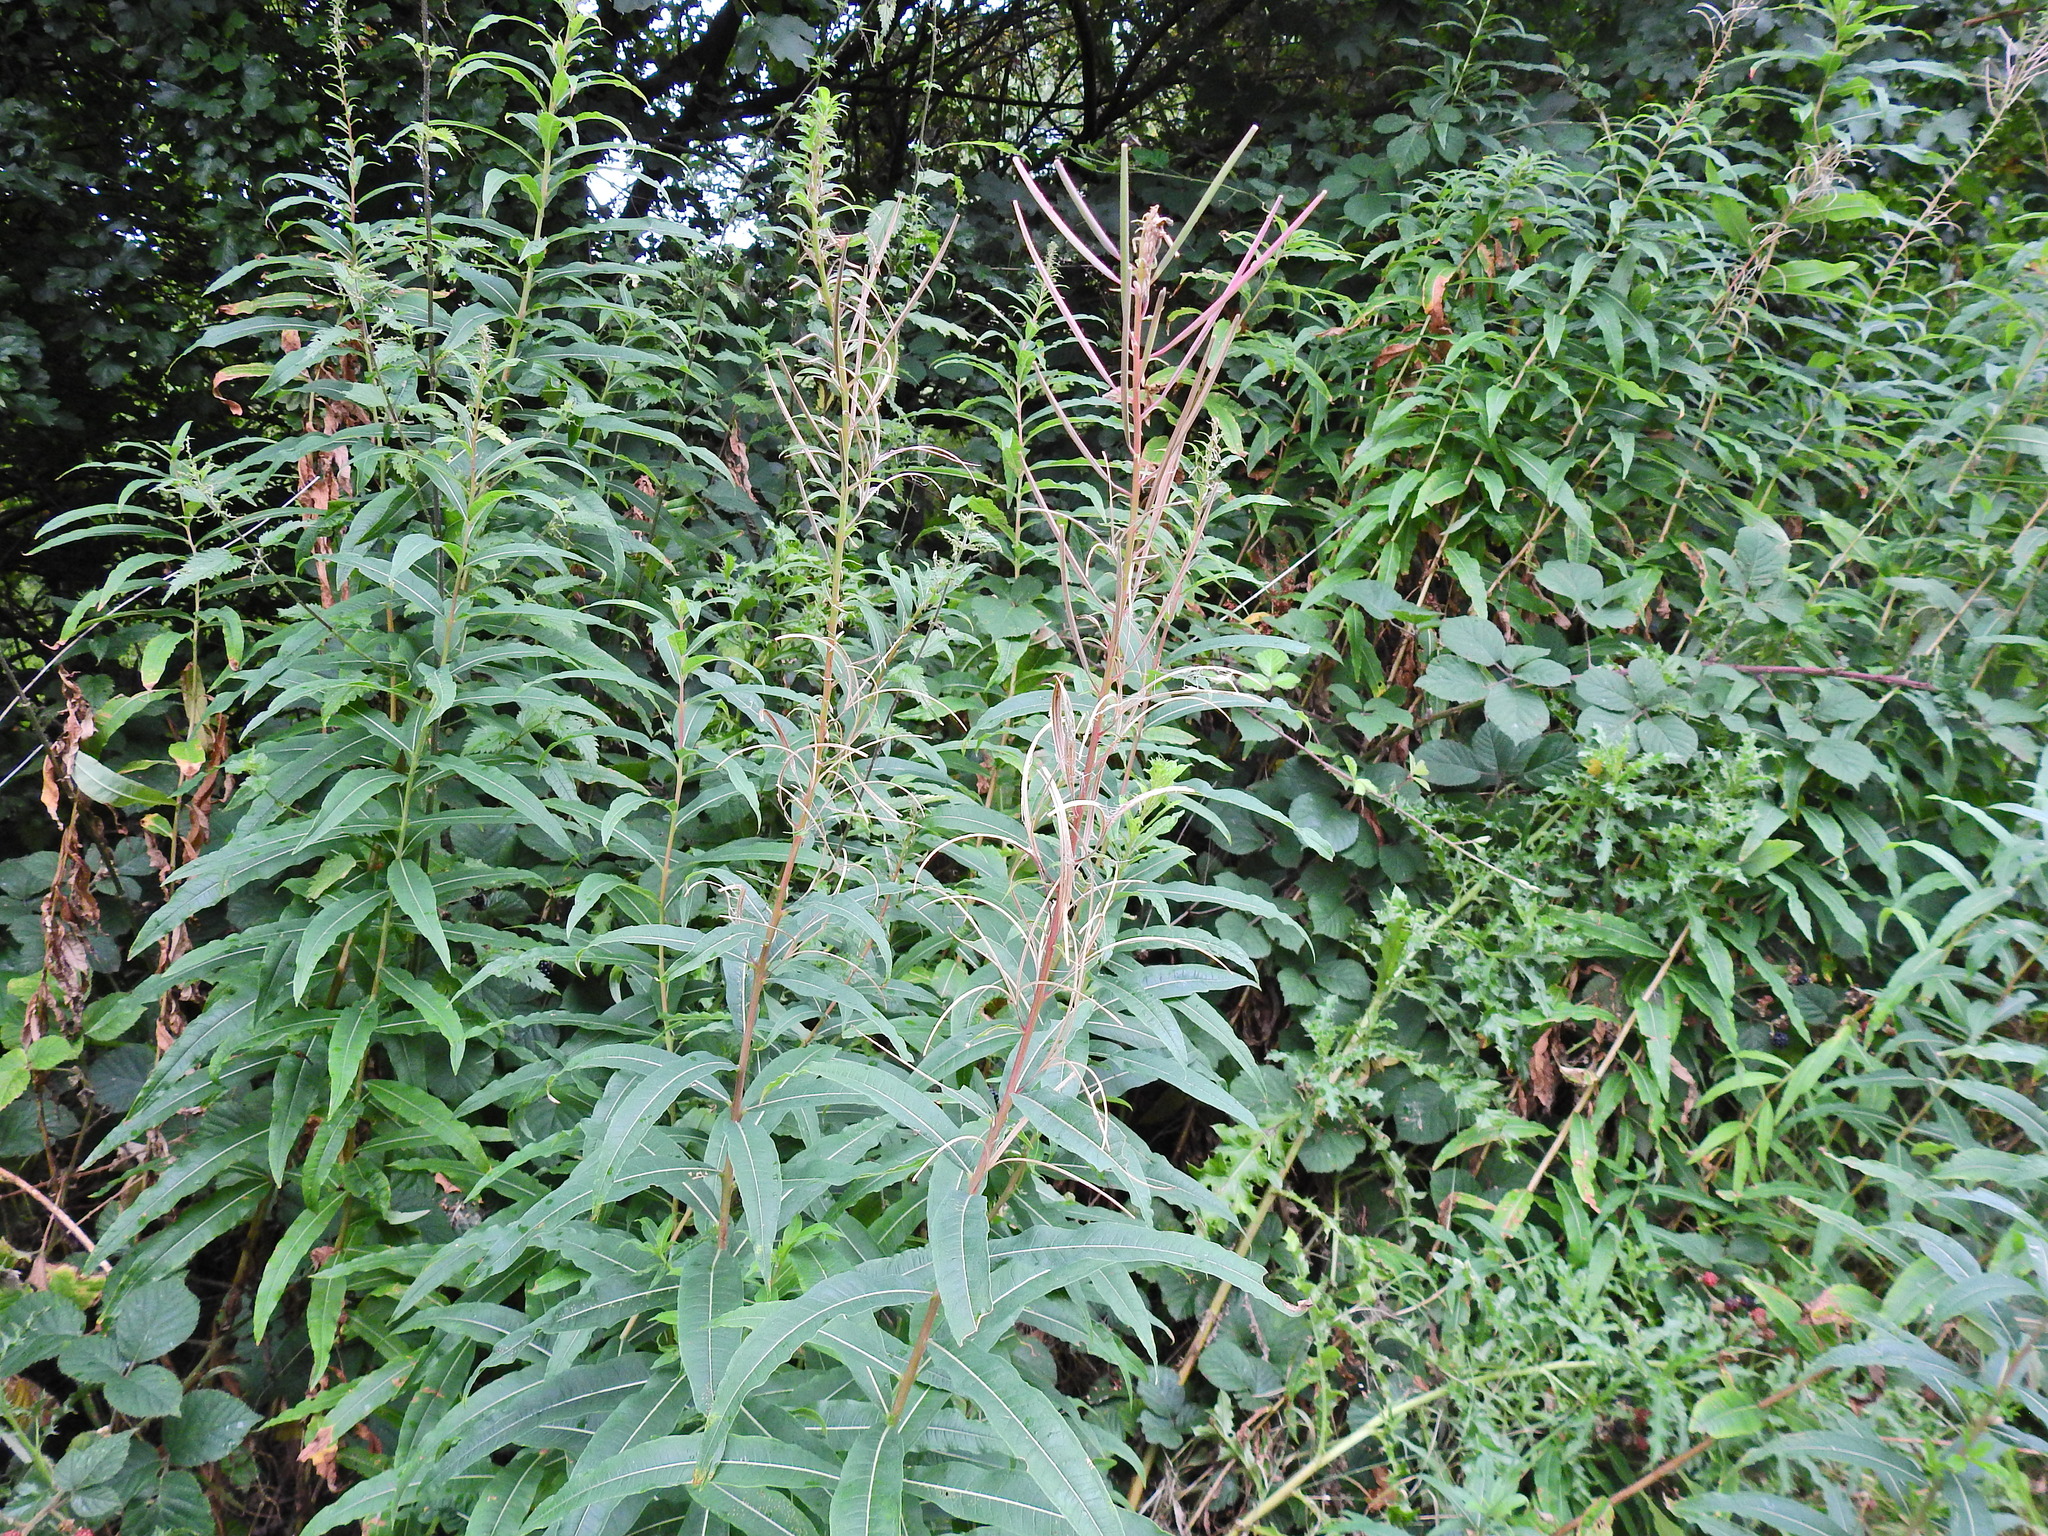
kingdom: Plantae
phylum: Tracheophyta
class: Magnoliopsida
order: Myrtales
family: Onagraceae
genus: Chamaenerion
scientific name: Chamaenerion angustifolium
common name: Fireweed
